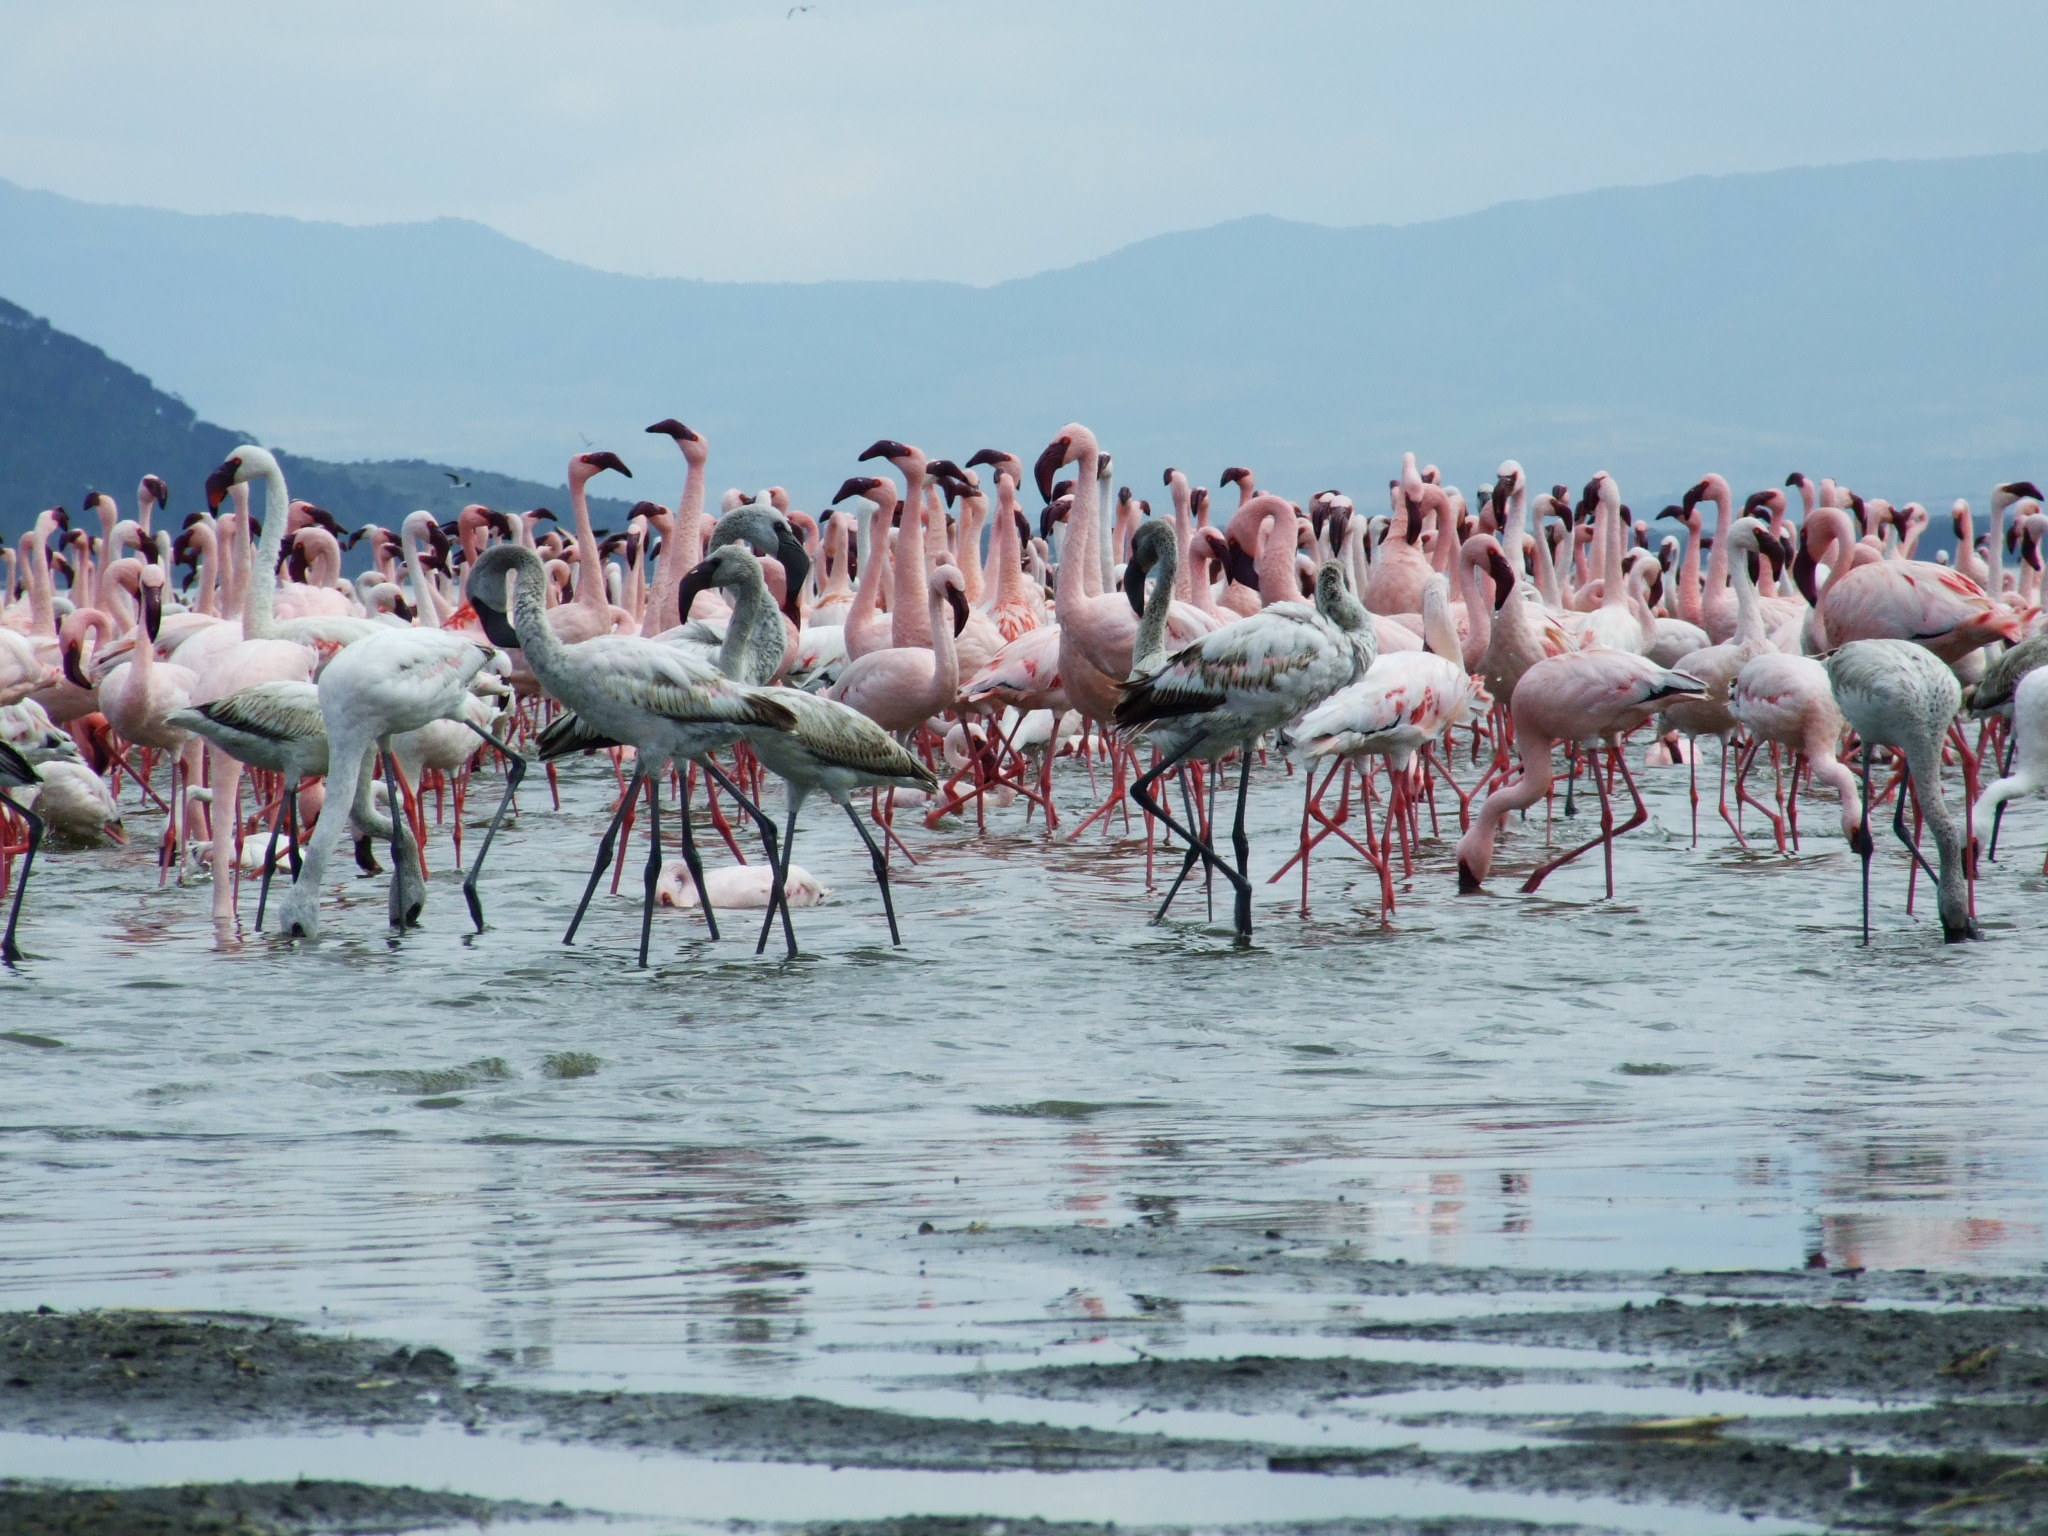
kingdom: Animalia
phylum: Chordata
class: Aves
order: Phoenicopteriformes
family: Phoenicopteridae
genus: Phoeniconaias
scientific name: Phoeniconaias minor
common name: Lesser flamingo
